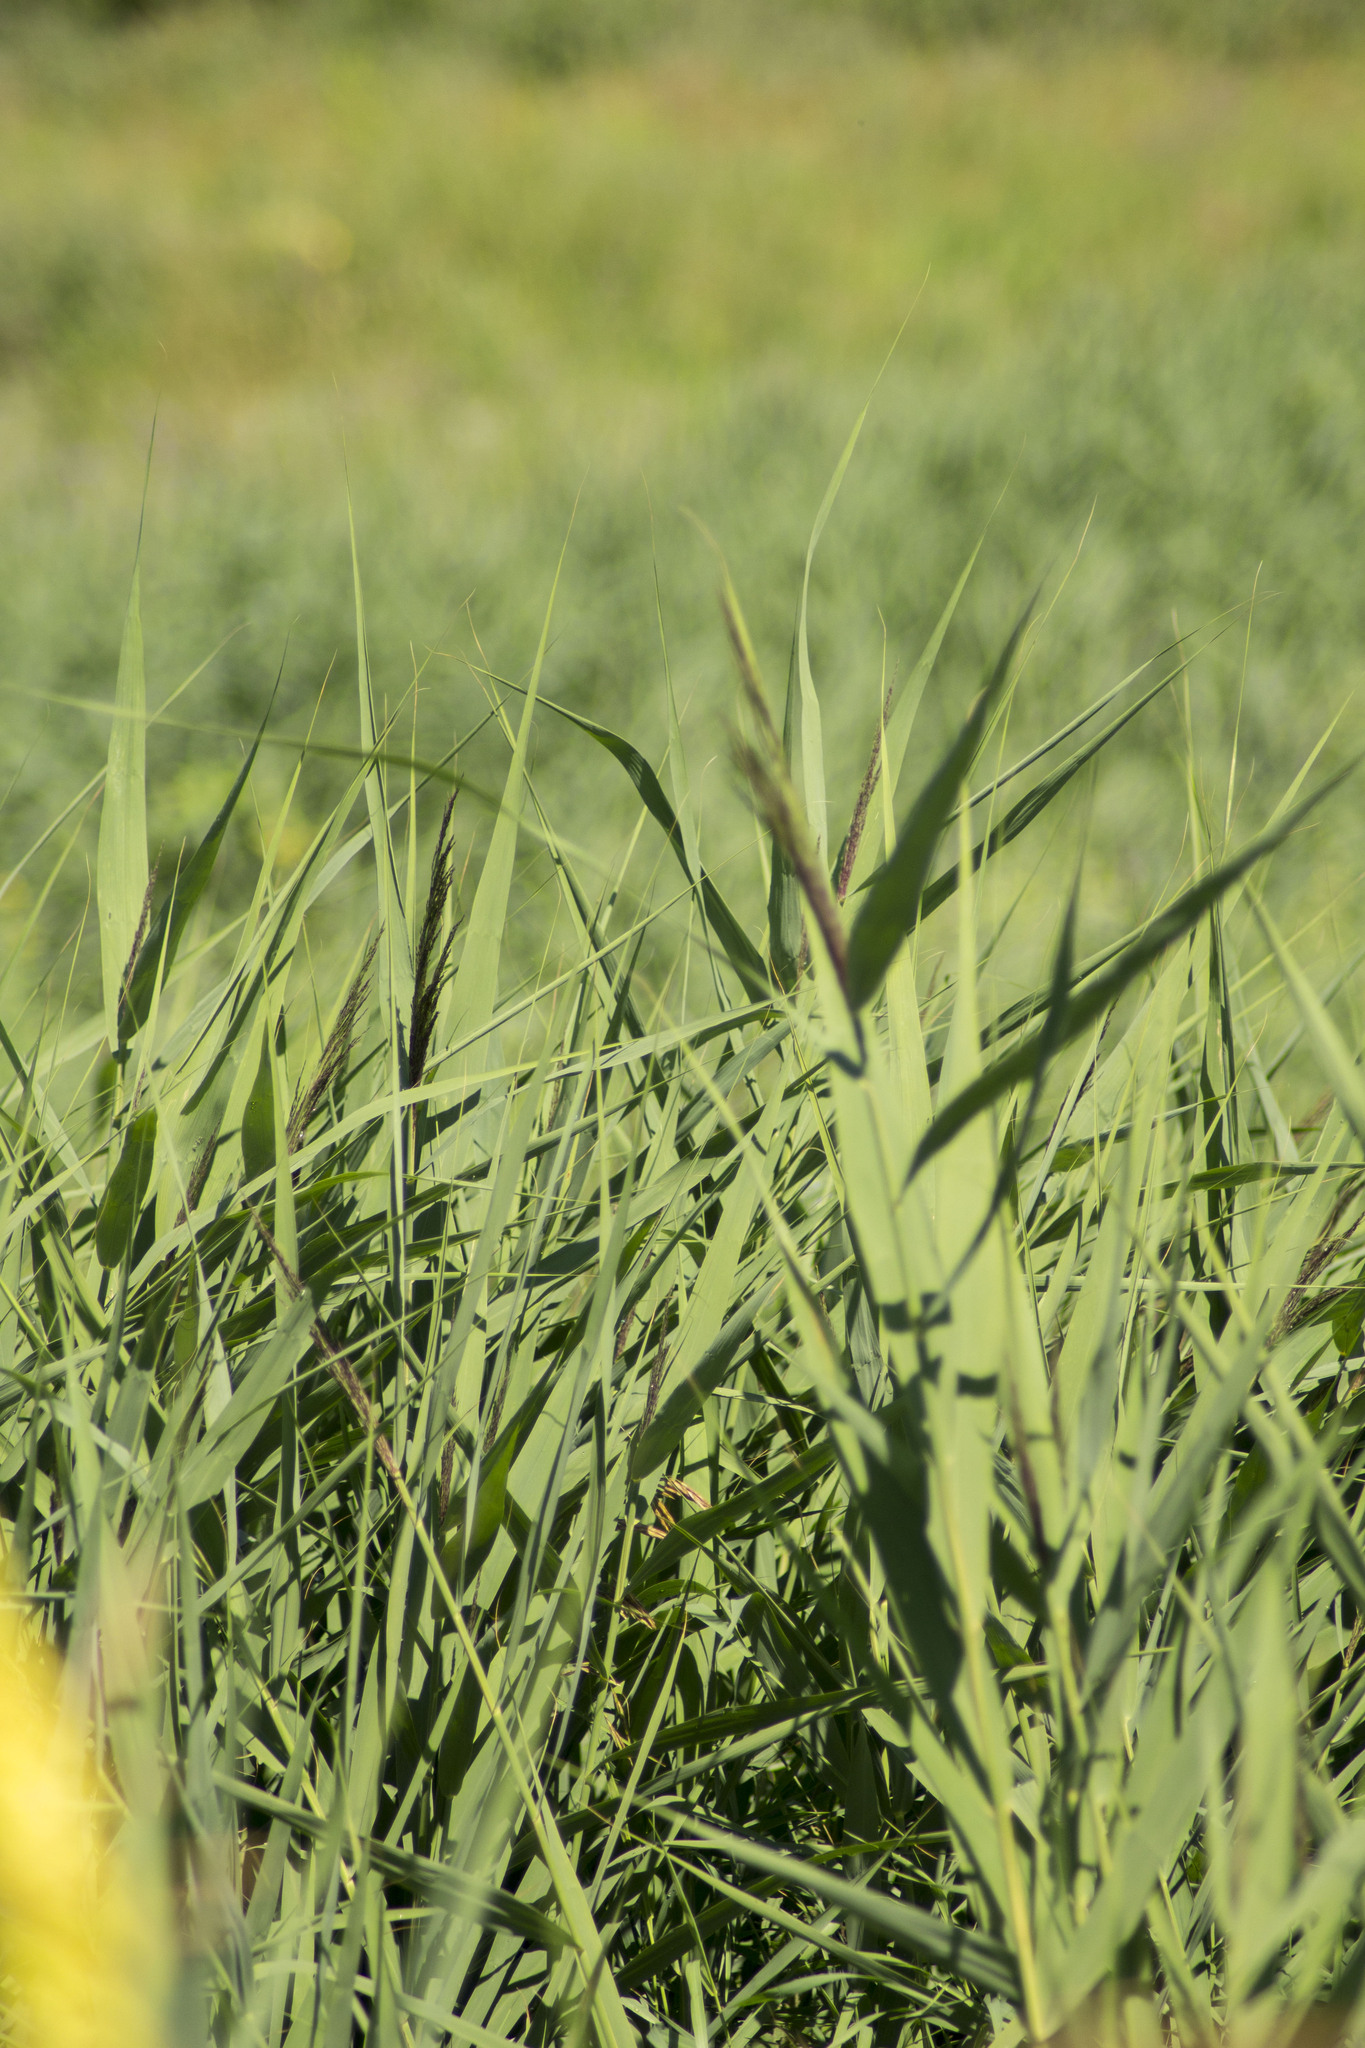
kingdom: Plantae
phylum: Tracheophyta
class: Liliopsida
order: Poales
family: Poaceae
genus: Phragmites
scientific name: Phragmites australis
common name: Common reed
